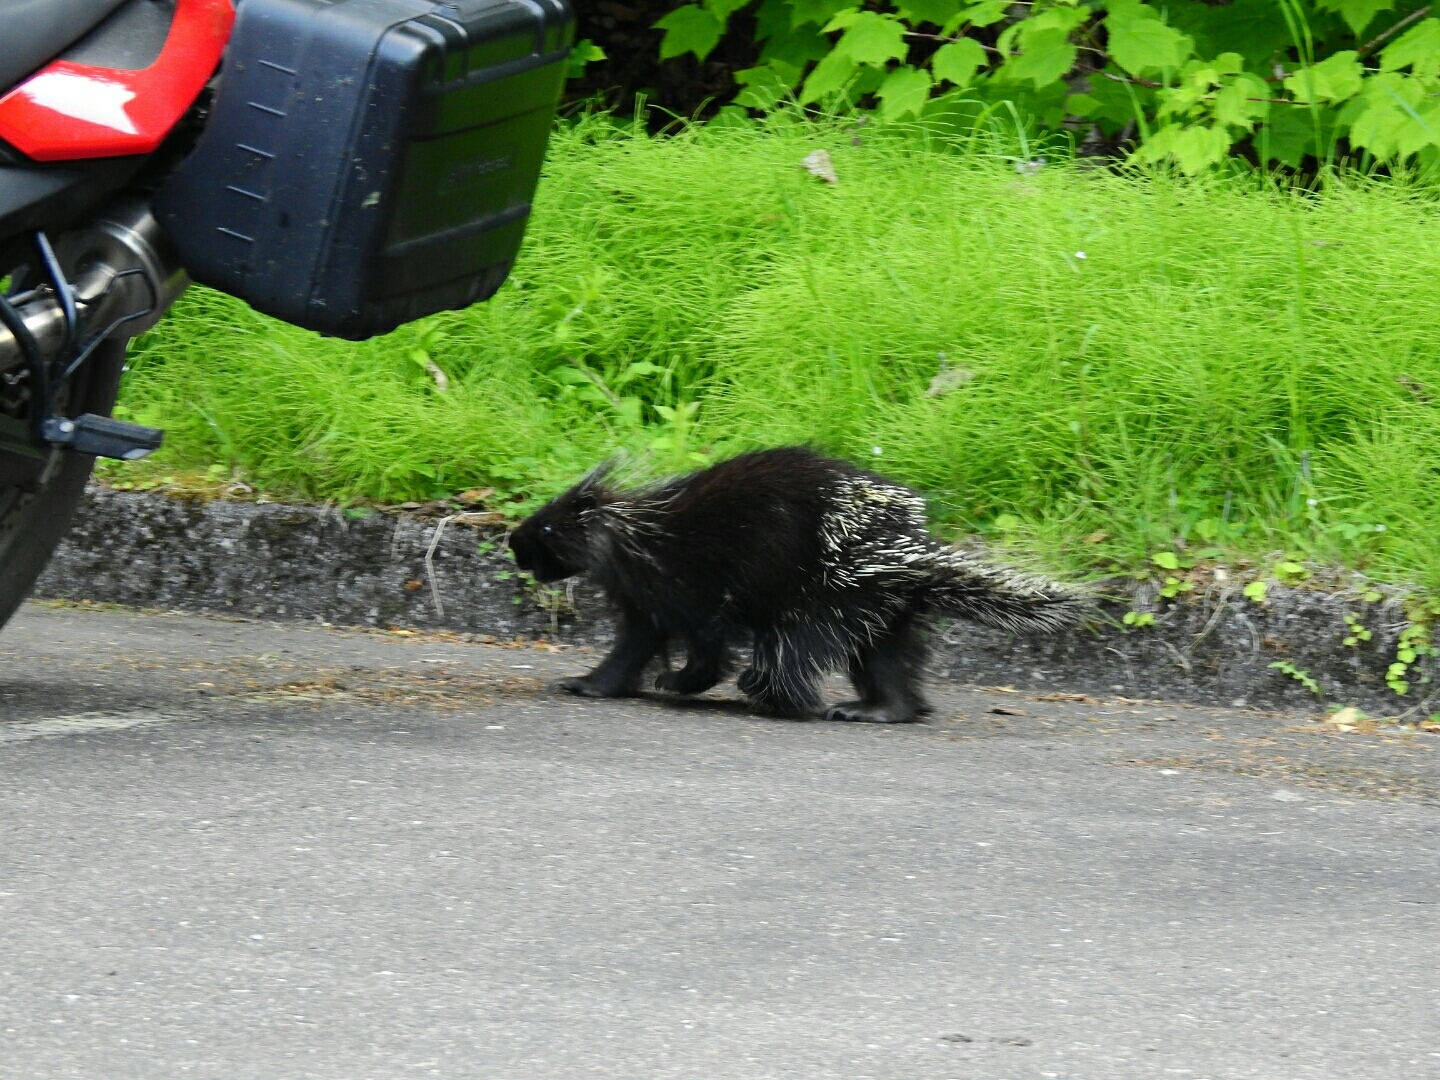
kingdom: Animalia
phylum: Chordata
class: Mammalia
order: Rodentia
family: Erethizontidae
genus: Erethizon
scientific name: Erethizon dorsatus
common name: North american porcupine
